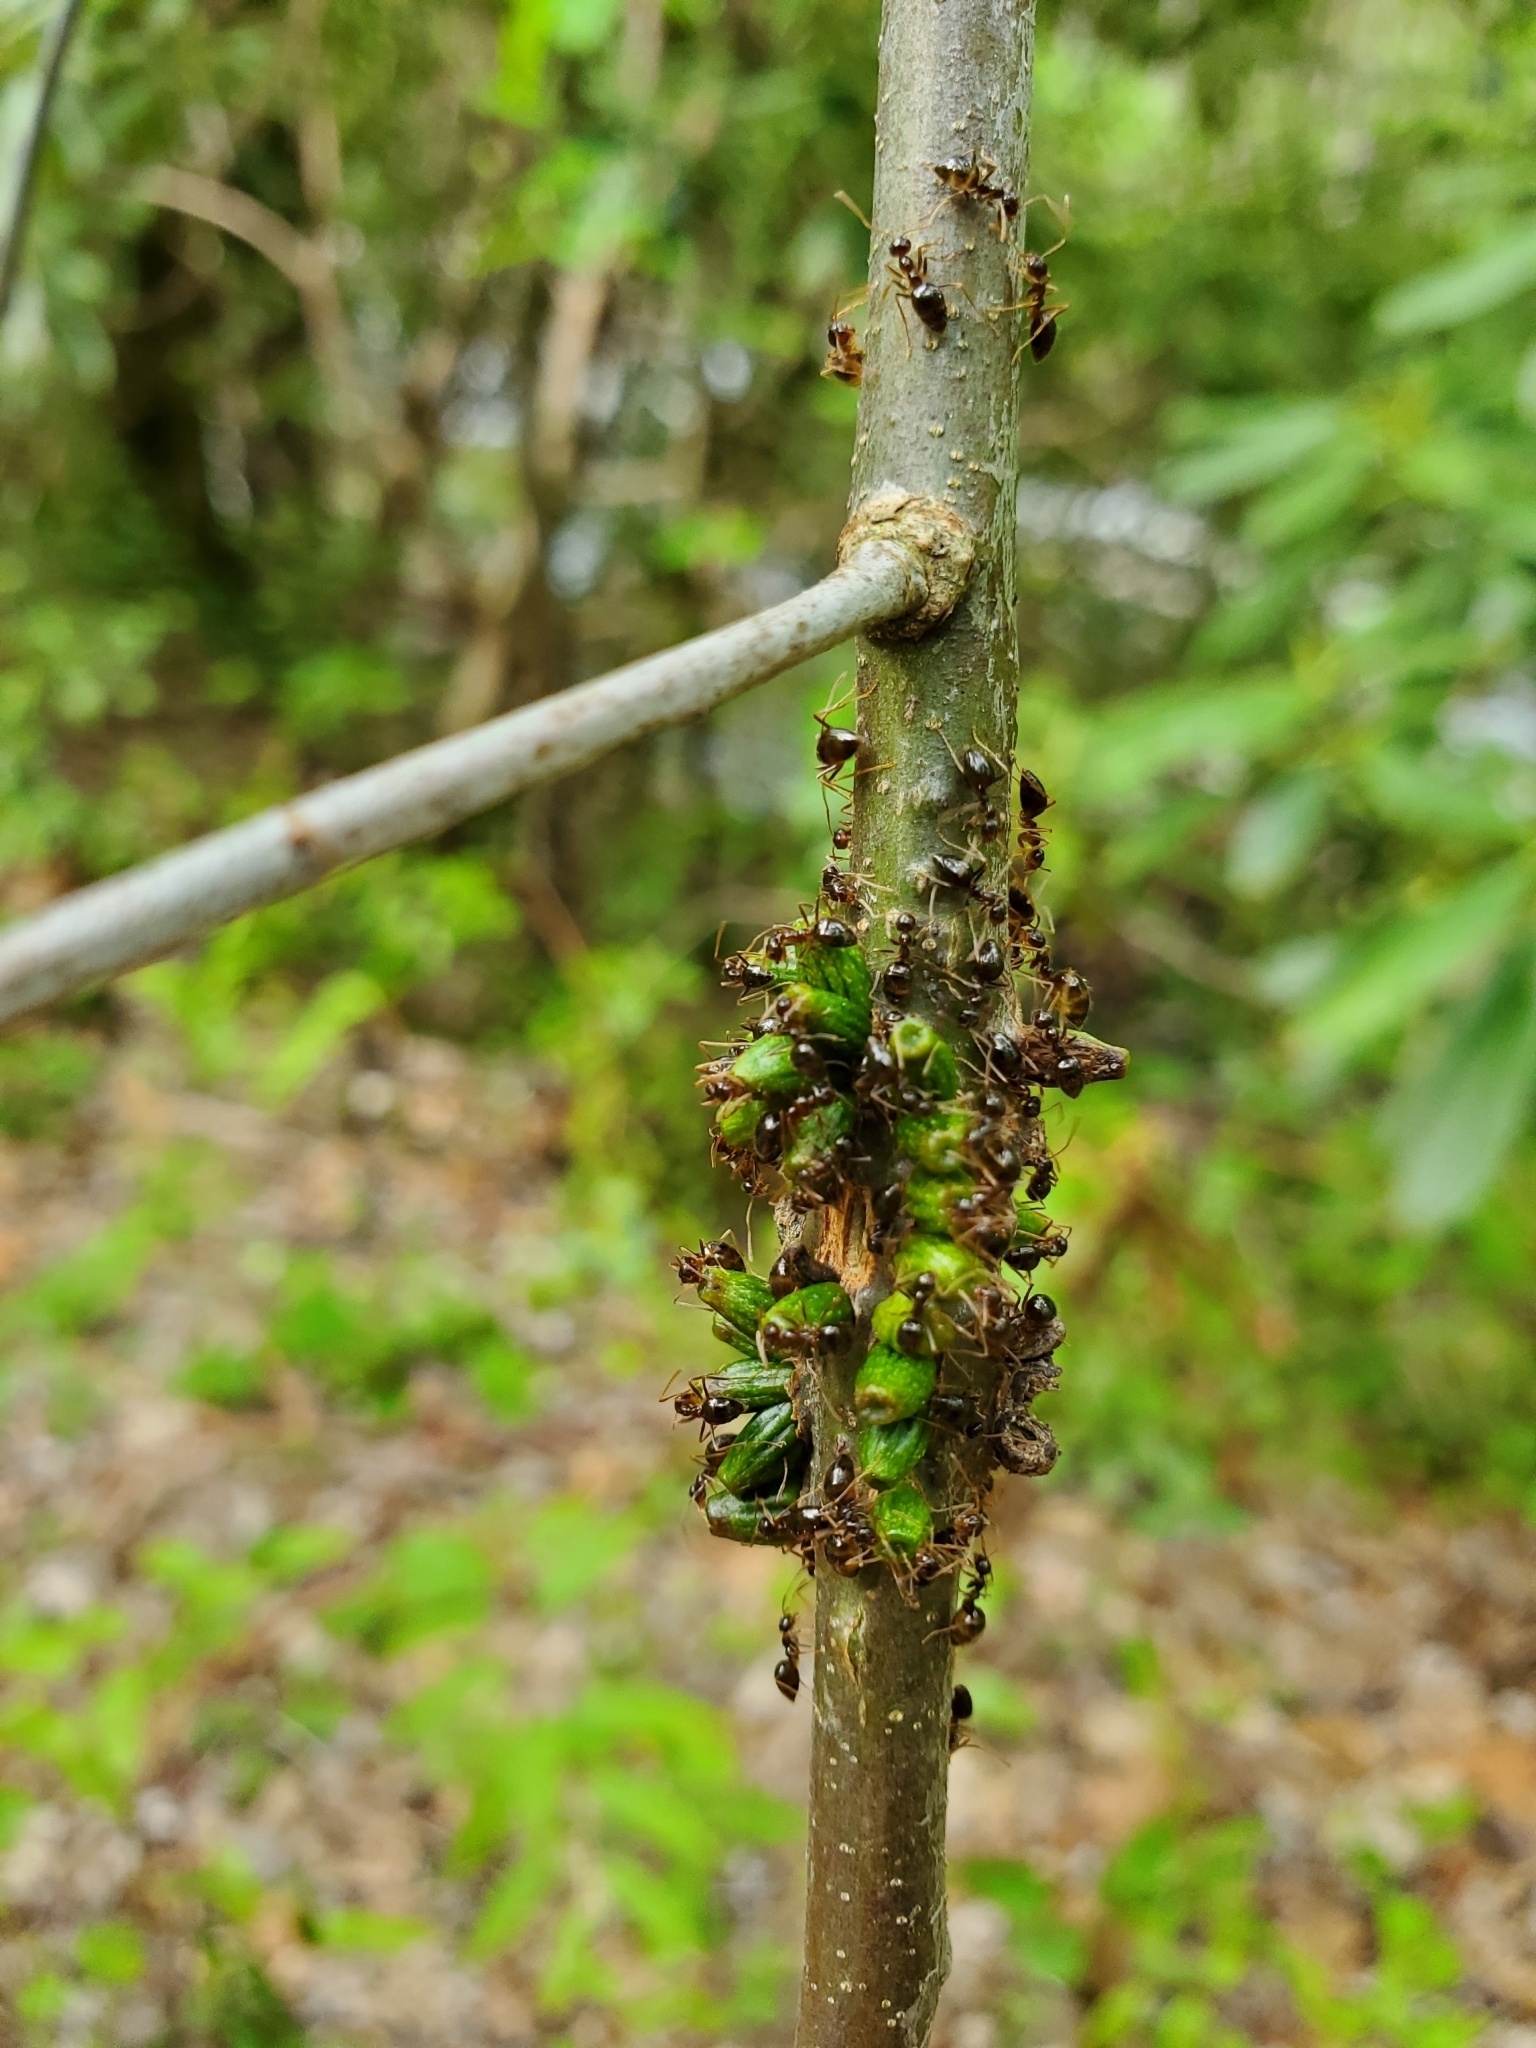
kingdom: Animalia
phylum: Arthropoda
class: Insecta
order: Hymenoptera
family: Formicidae
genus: Prenolepis
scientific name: Prenolepis imparis
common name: Small honey ant
